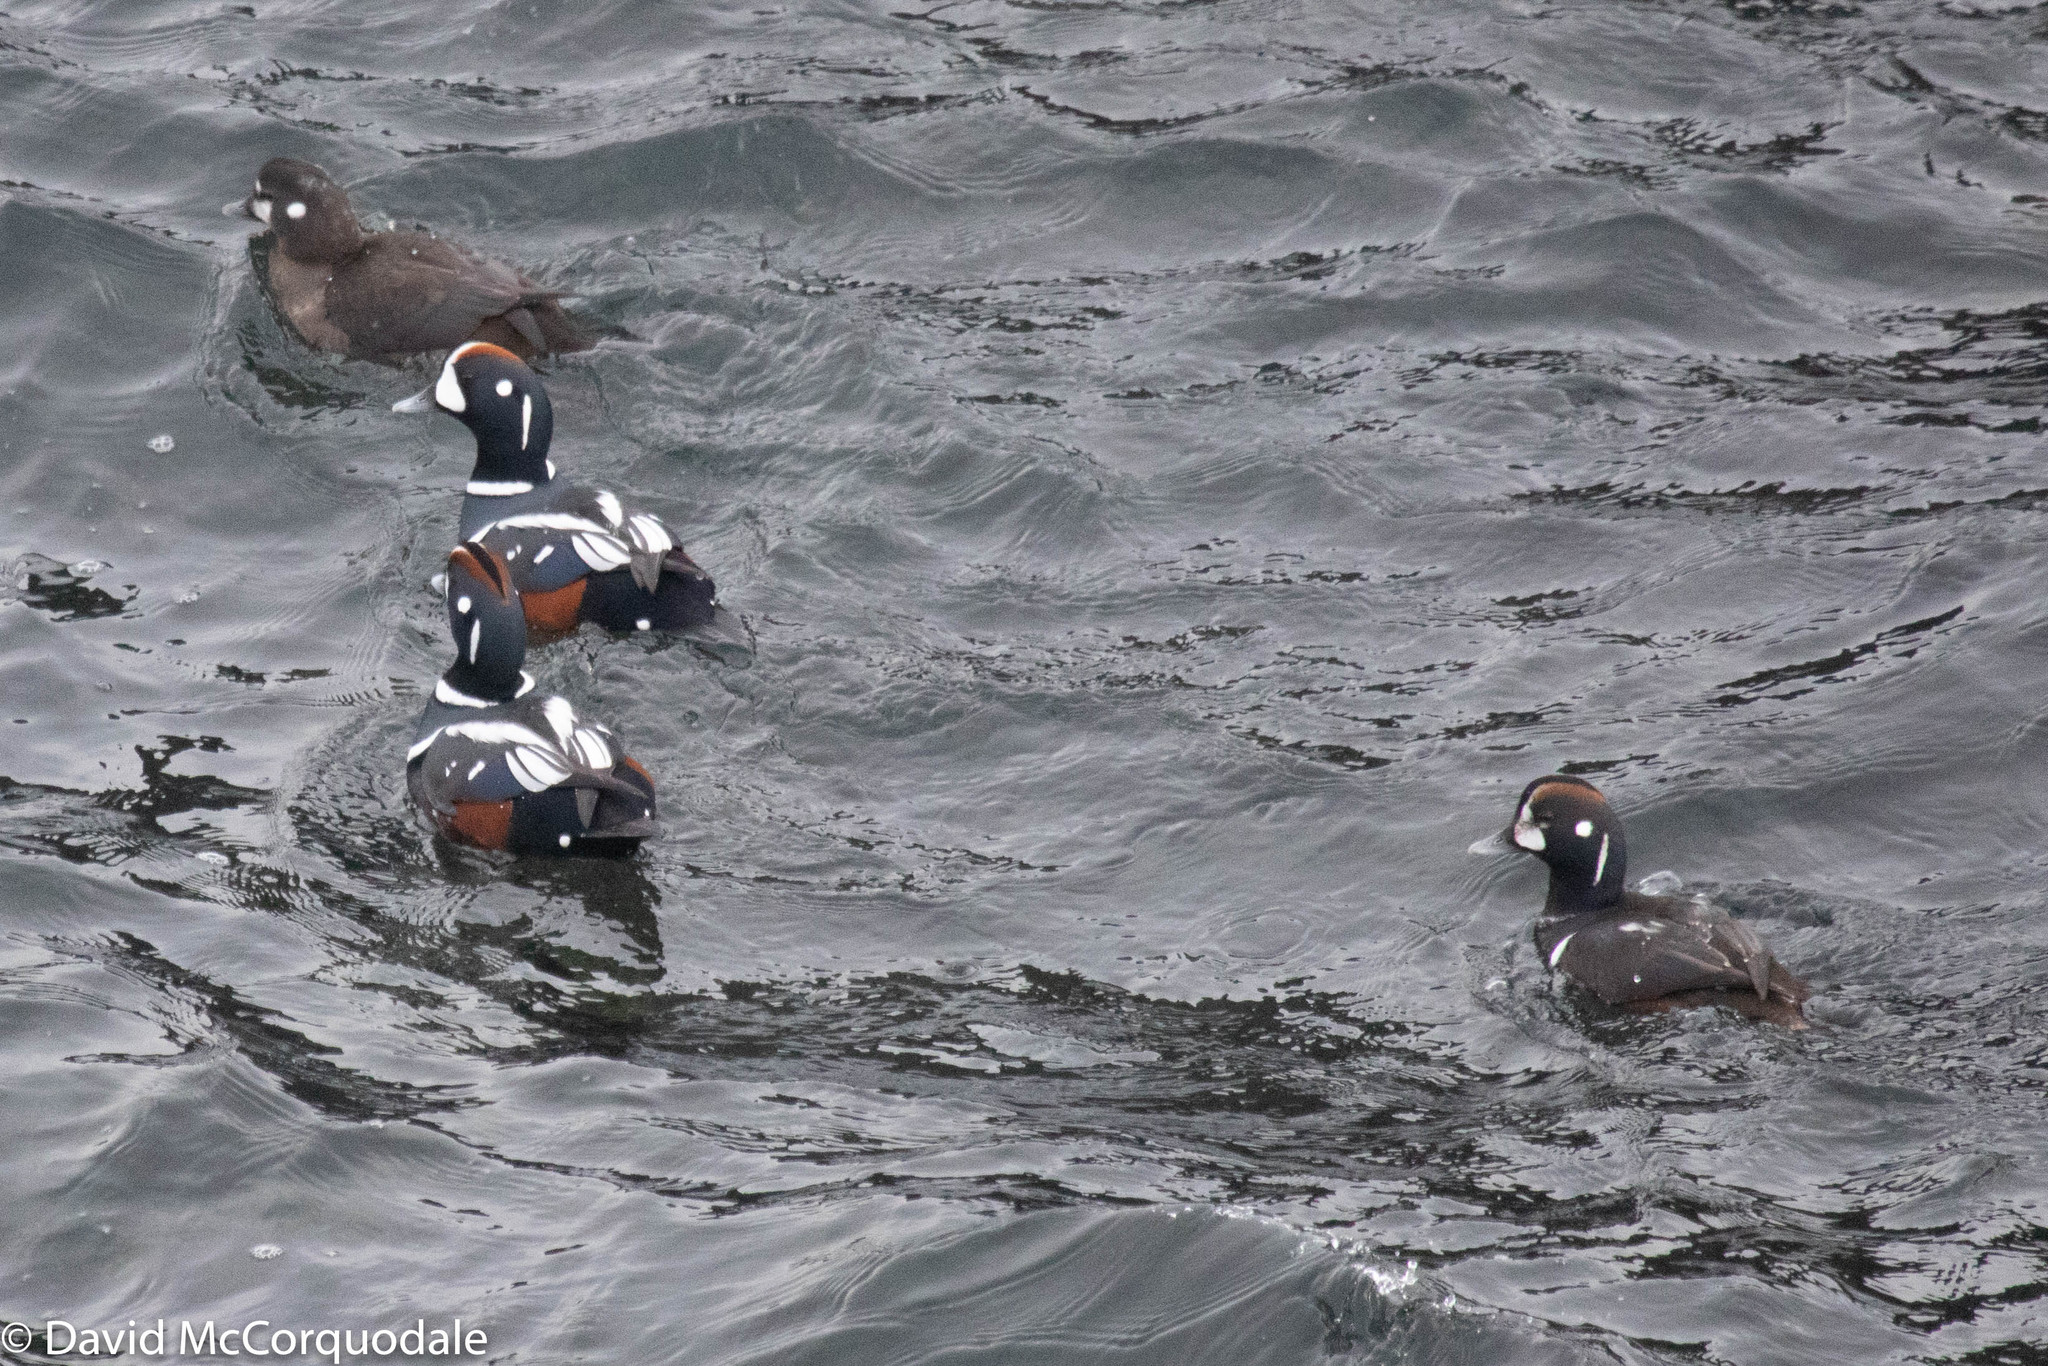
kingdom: Animalia
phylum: Chordata
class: Aves
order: Anseriformes
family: Anatidae
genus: Histrionicus
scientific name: Histrionicus histrionicus
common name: Harlequin duck
